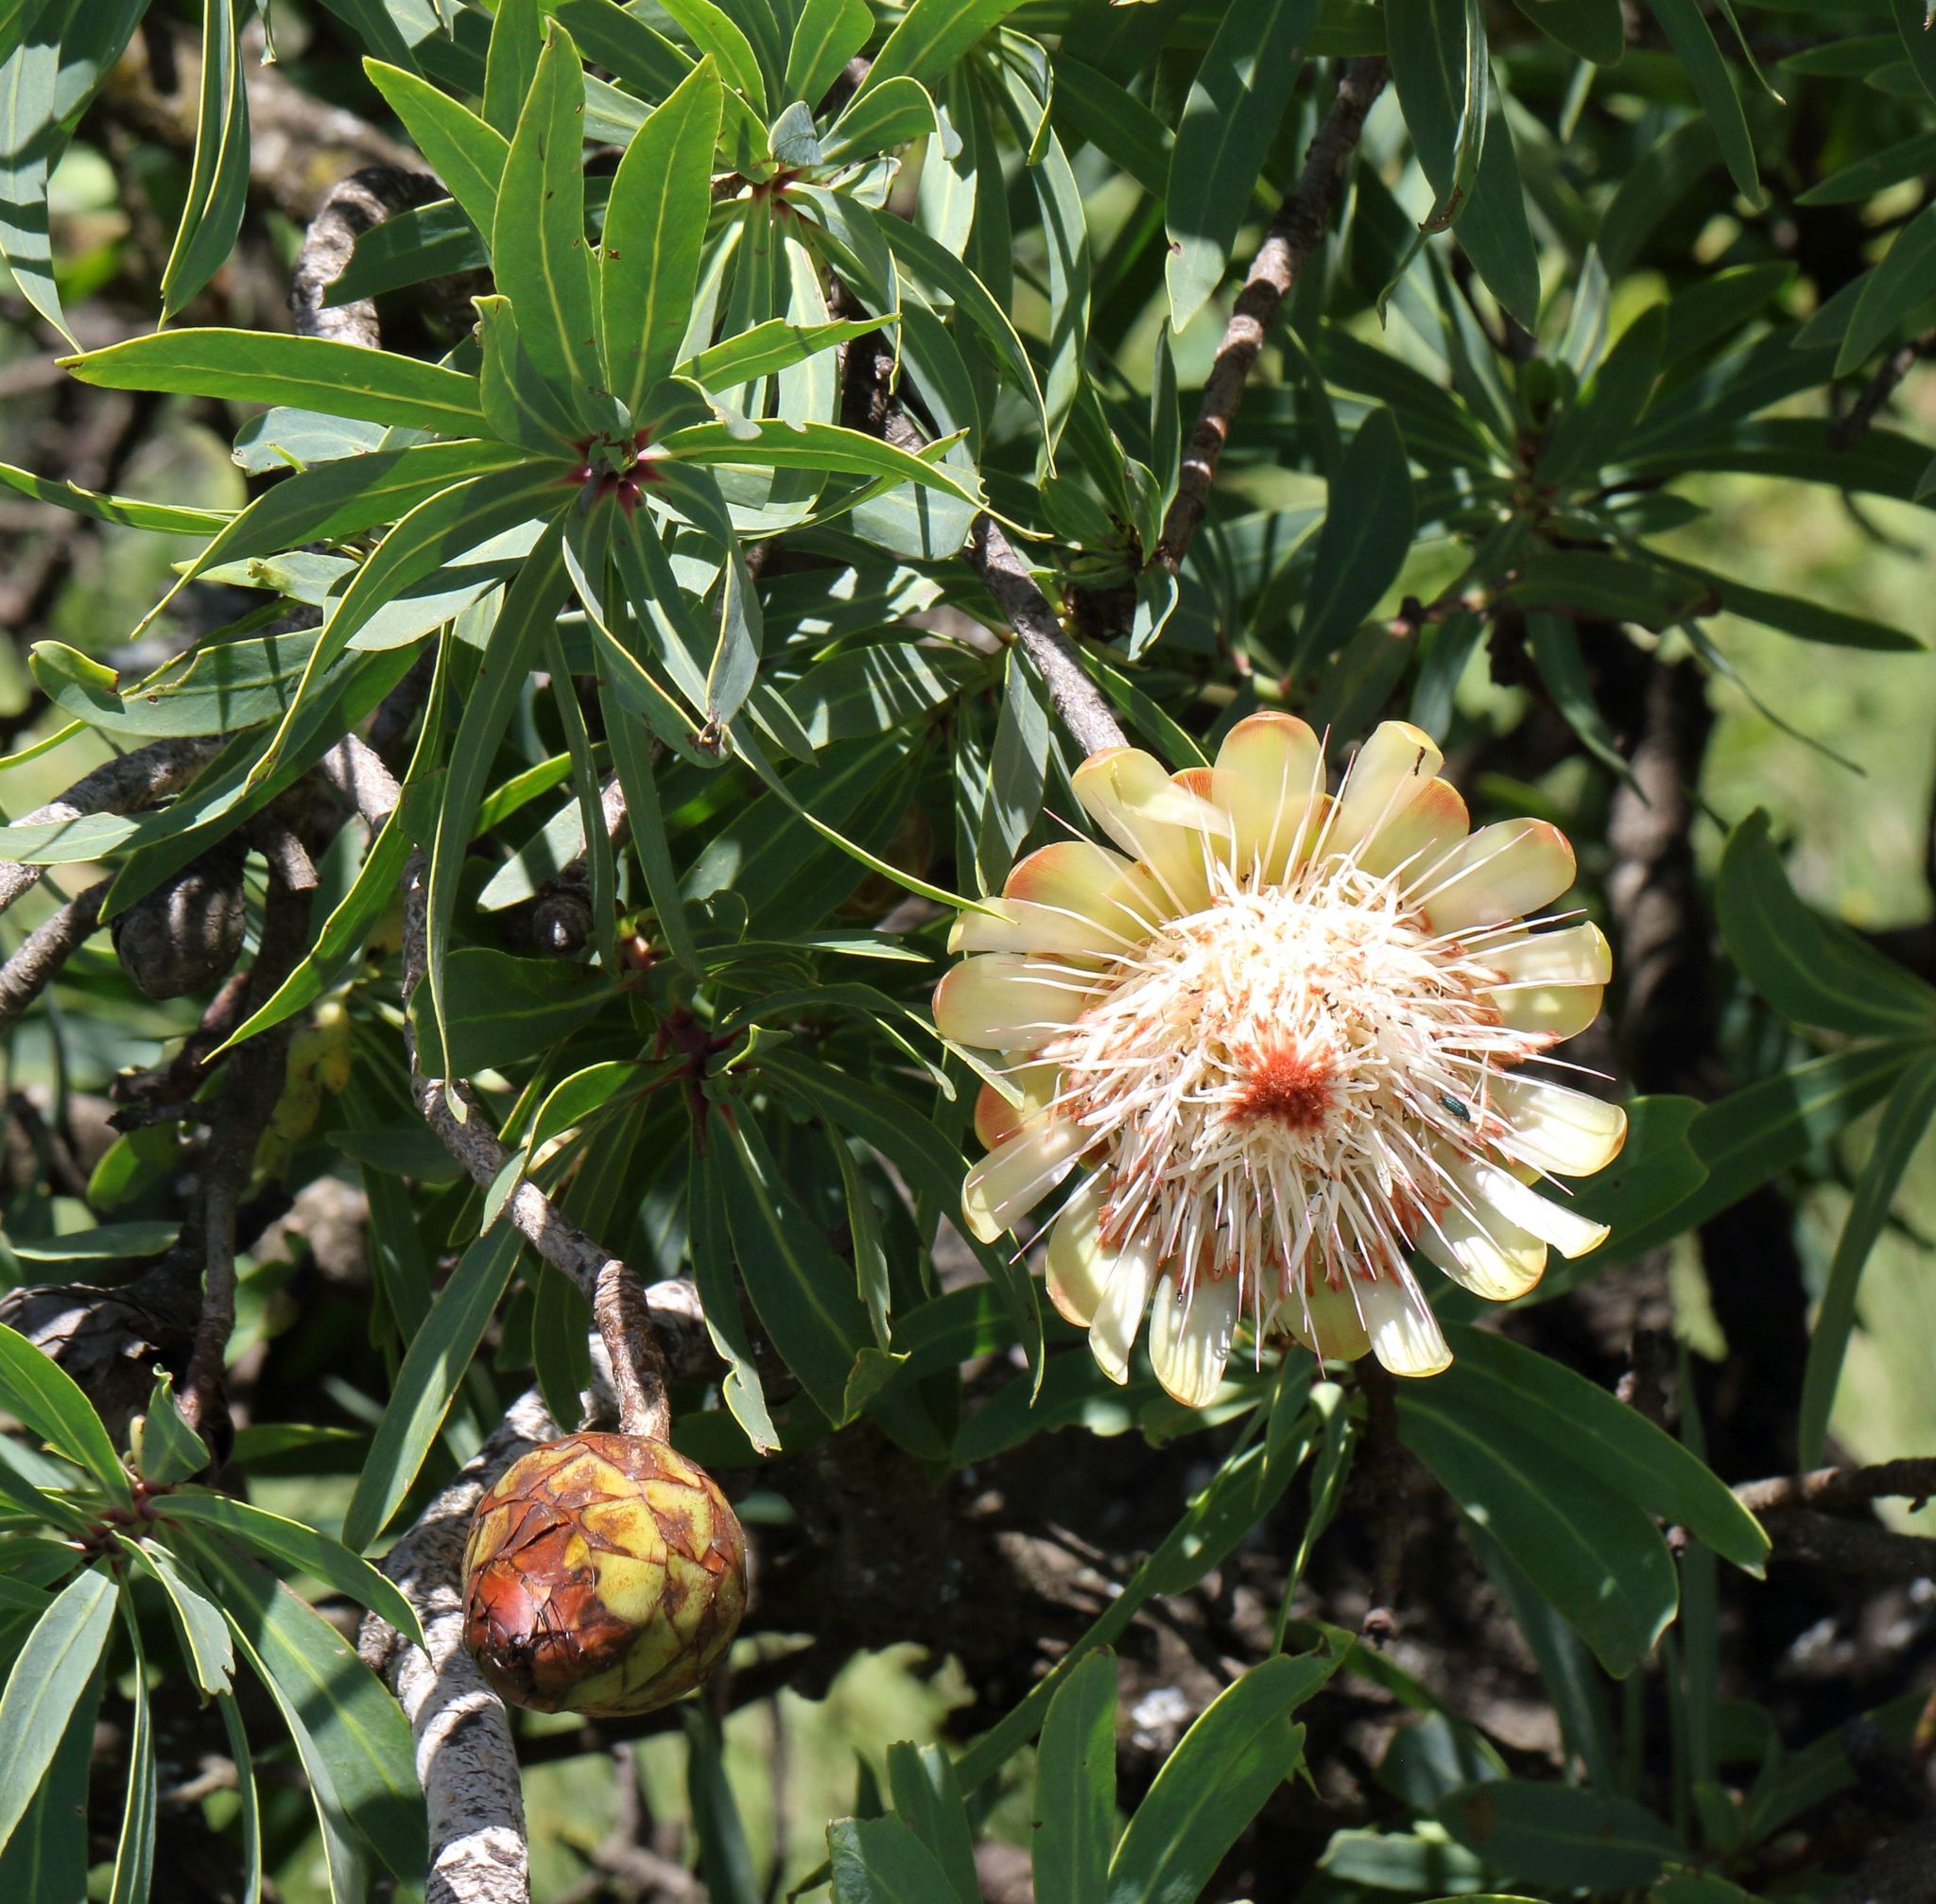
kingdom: Plantae
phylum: Tracheophyta
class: Magnoliopsida
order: Proteales
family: Proteaceae
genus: Protea
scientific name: Protea caffra
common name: Common sugarbush
